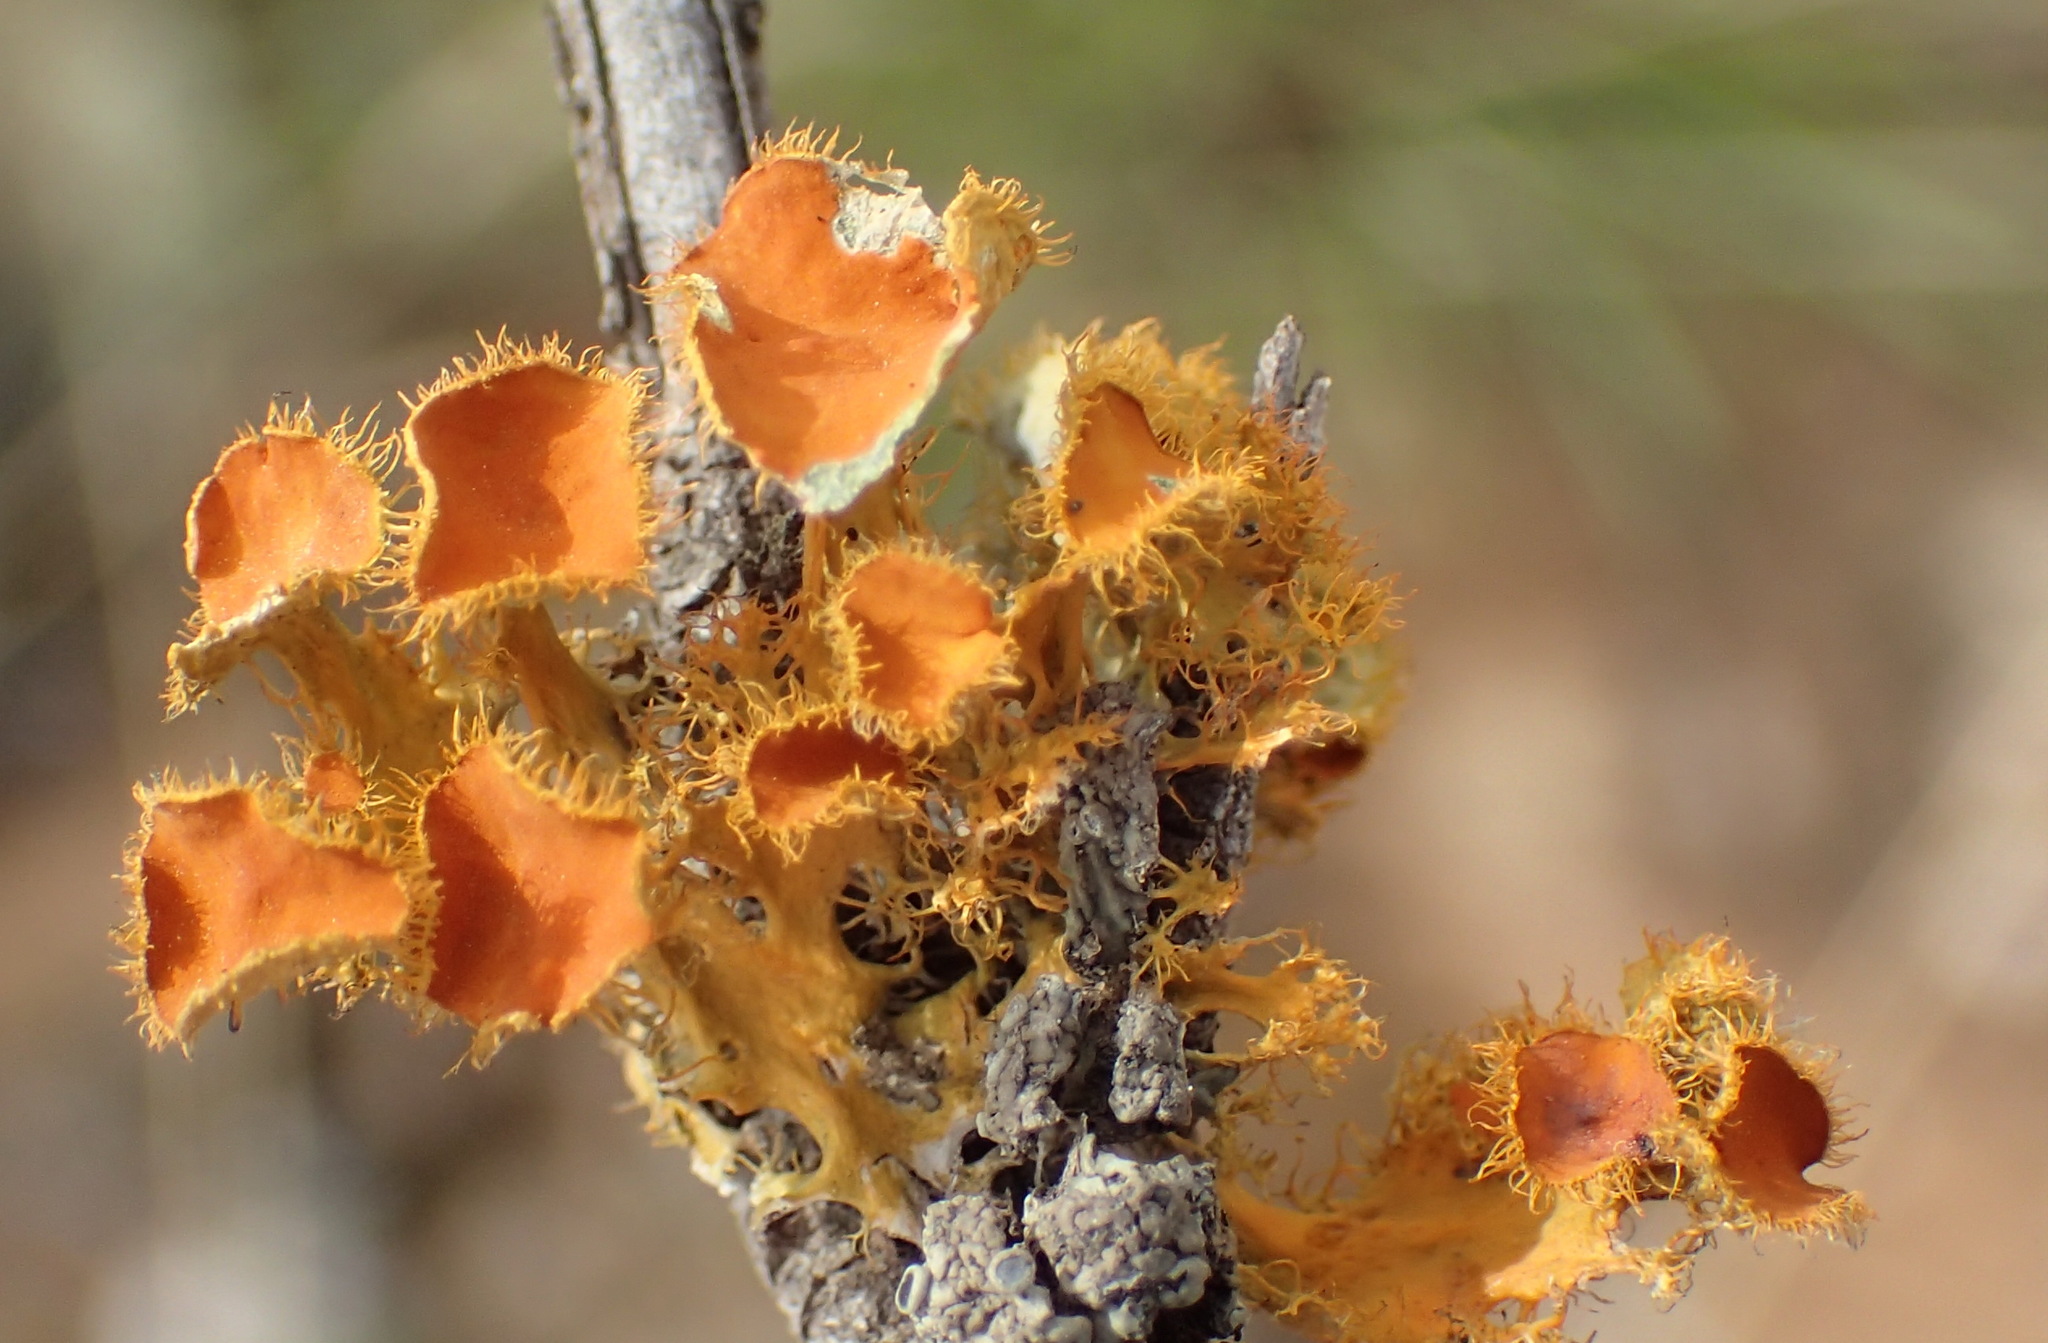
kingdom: Fungi
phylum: Ascomycota
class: Lecanoromycetes
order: Teloschistales
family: Teloschistaceae
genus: Niorma
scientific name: Niorma chrysophthalma
